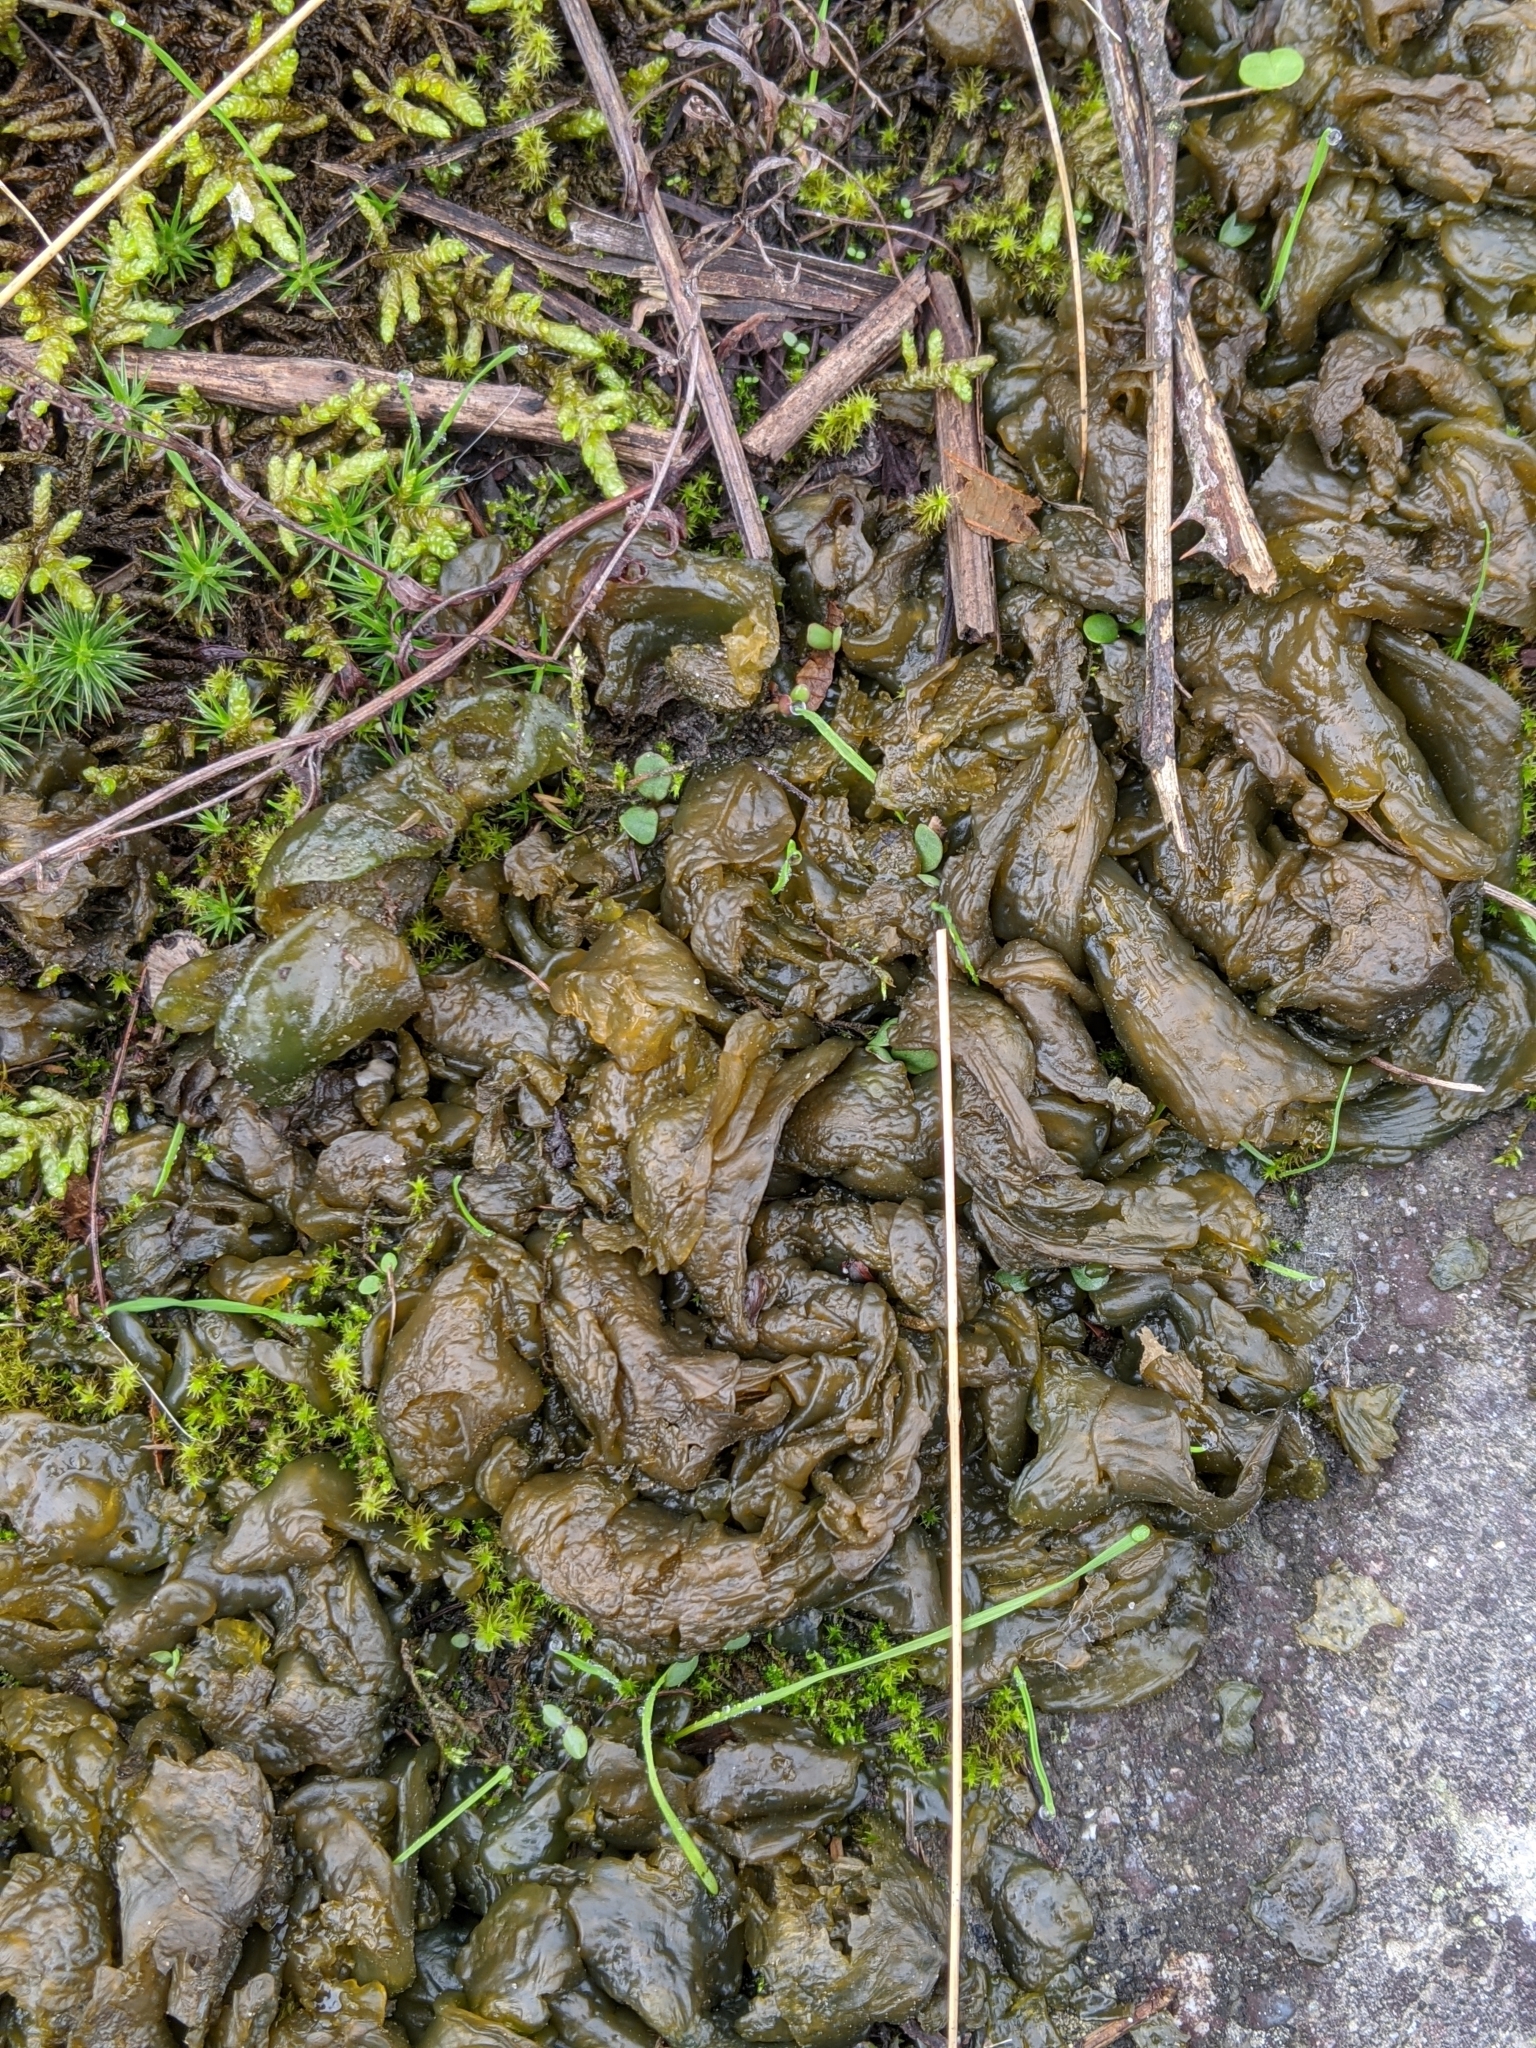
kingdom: Bacteria
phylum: Cyanobacteria
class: Cyanobacteriia
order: Cyanobacteriales
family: Nostocaceae
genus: Nostoc
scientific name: Nostoc commune
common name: Star jelly
